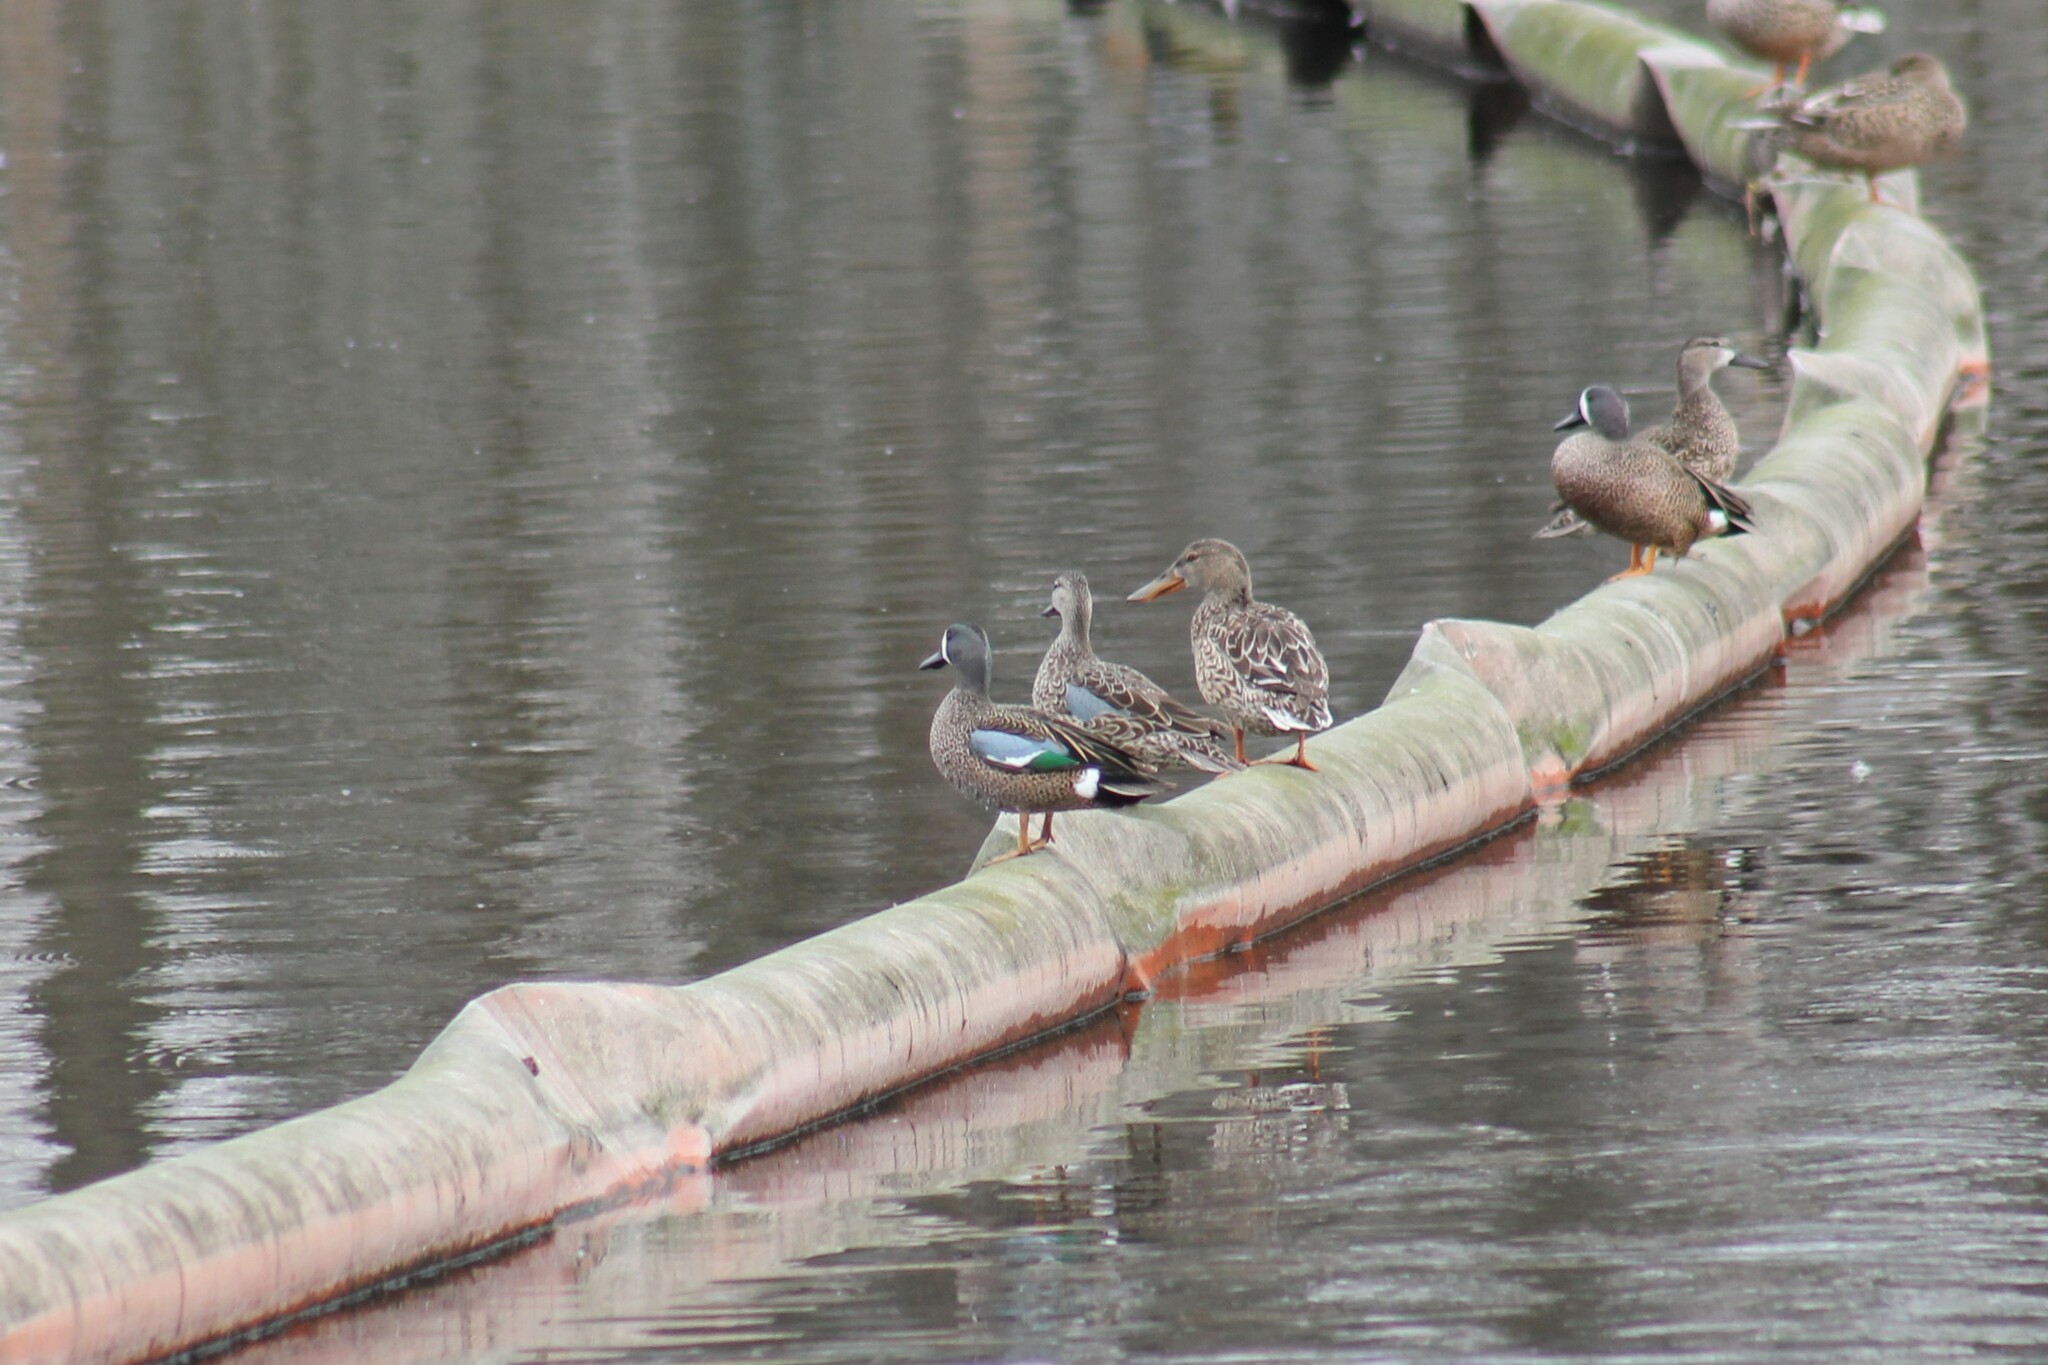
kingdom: Animalia
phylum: Chordata
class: Aves
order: Anseriformes
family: Anatidae
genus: Spatula
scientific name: Spatula discors
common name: Blue-winged teal
